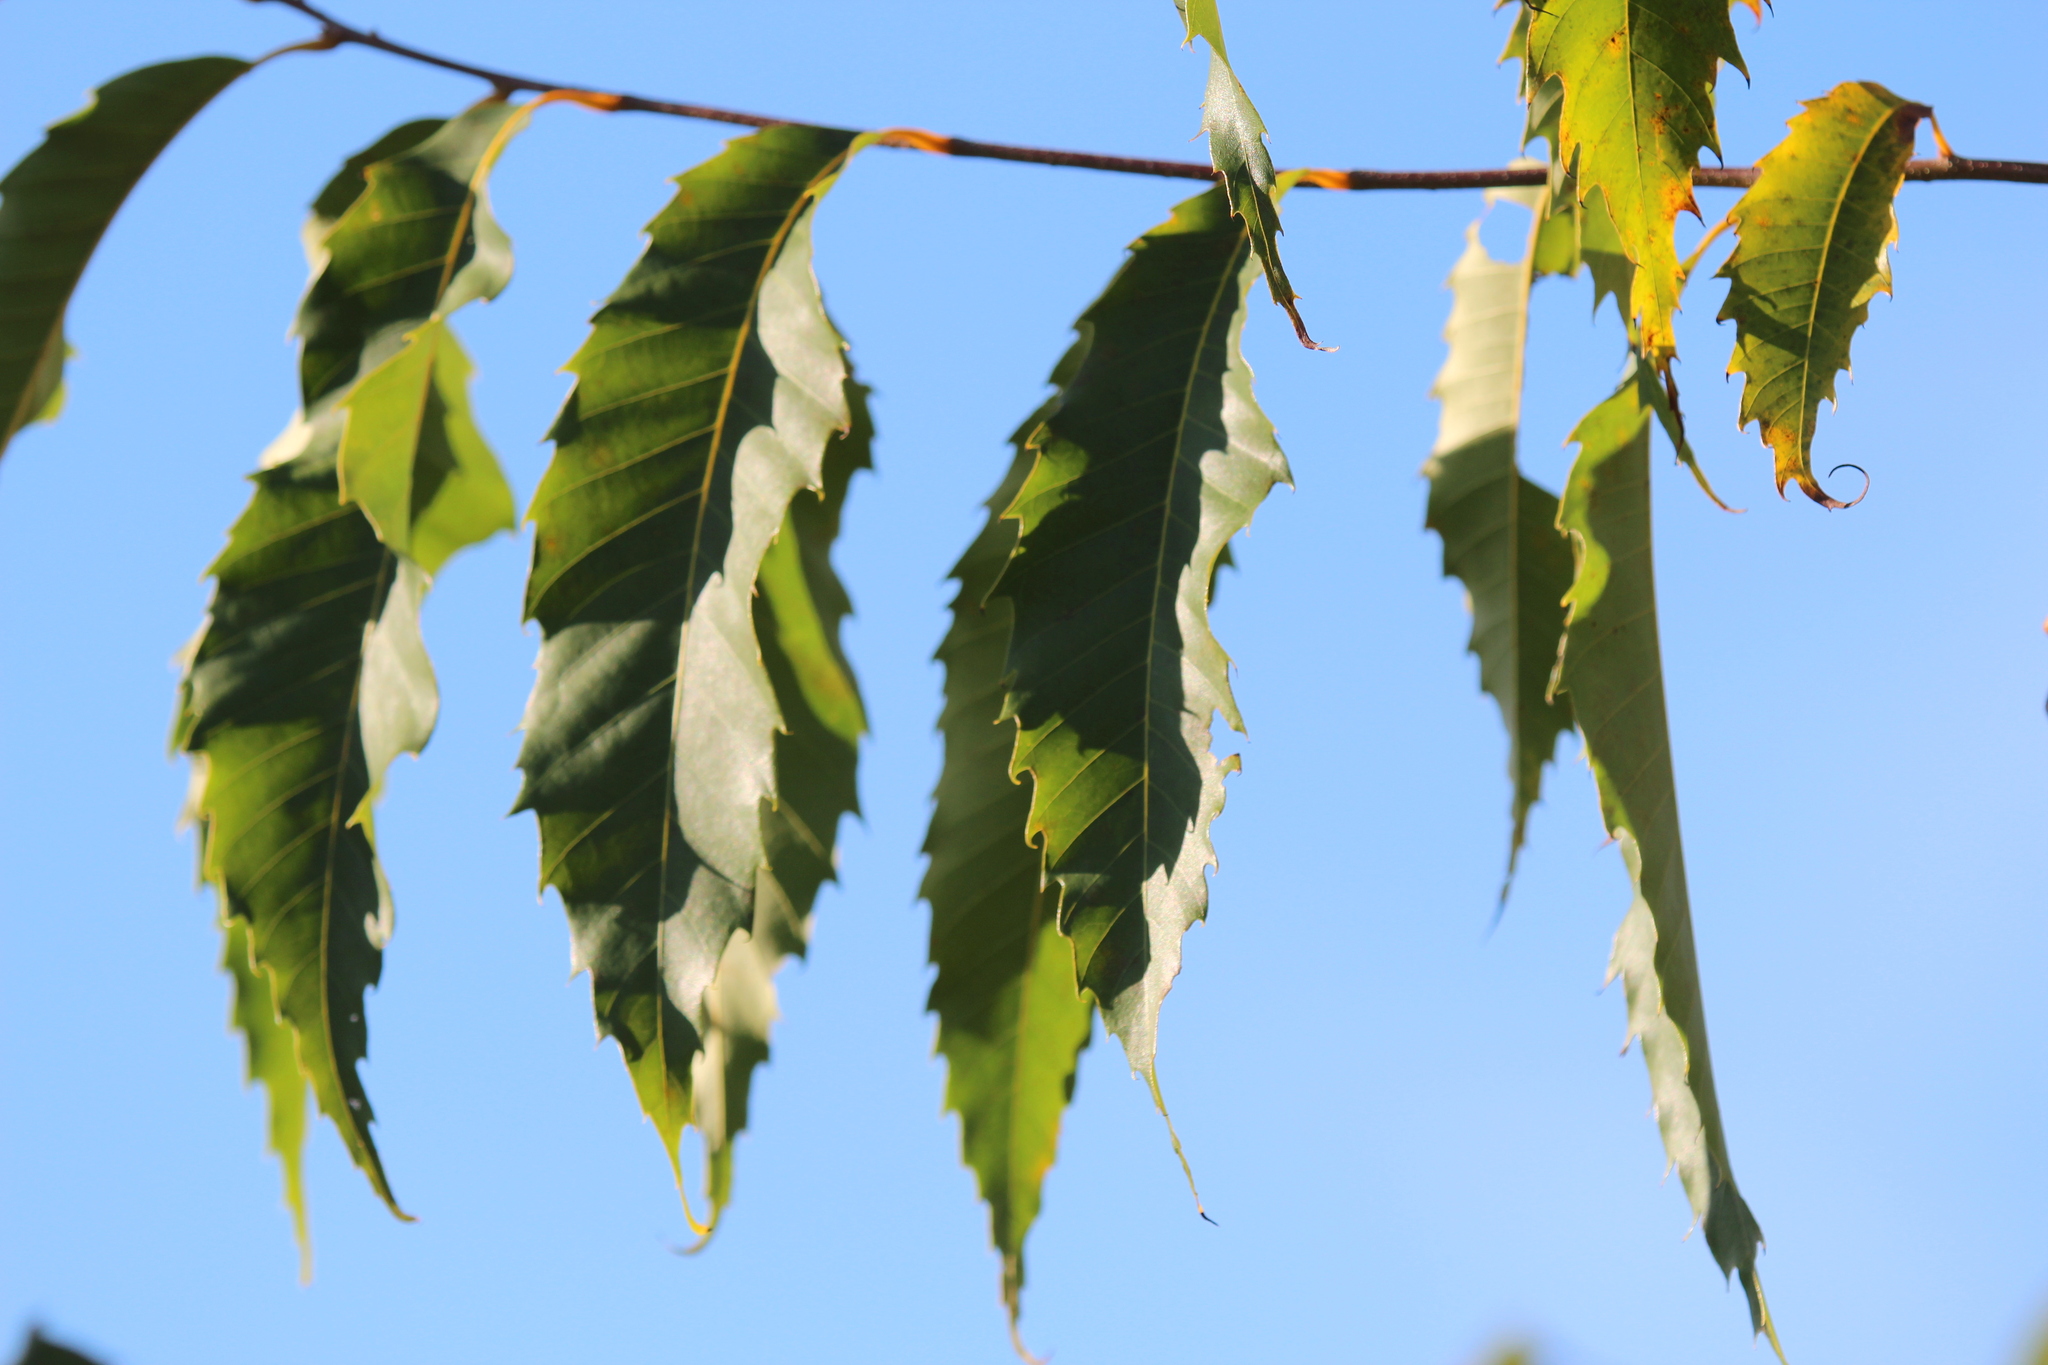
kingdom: Plantae
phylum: Tracheophyta
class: Magnoliopsida
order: Fagales
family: Fagaceae
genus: Castanea
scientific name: Castanea dentata
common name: American chestnut
